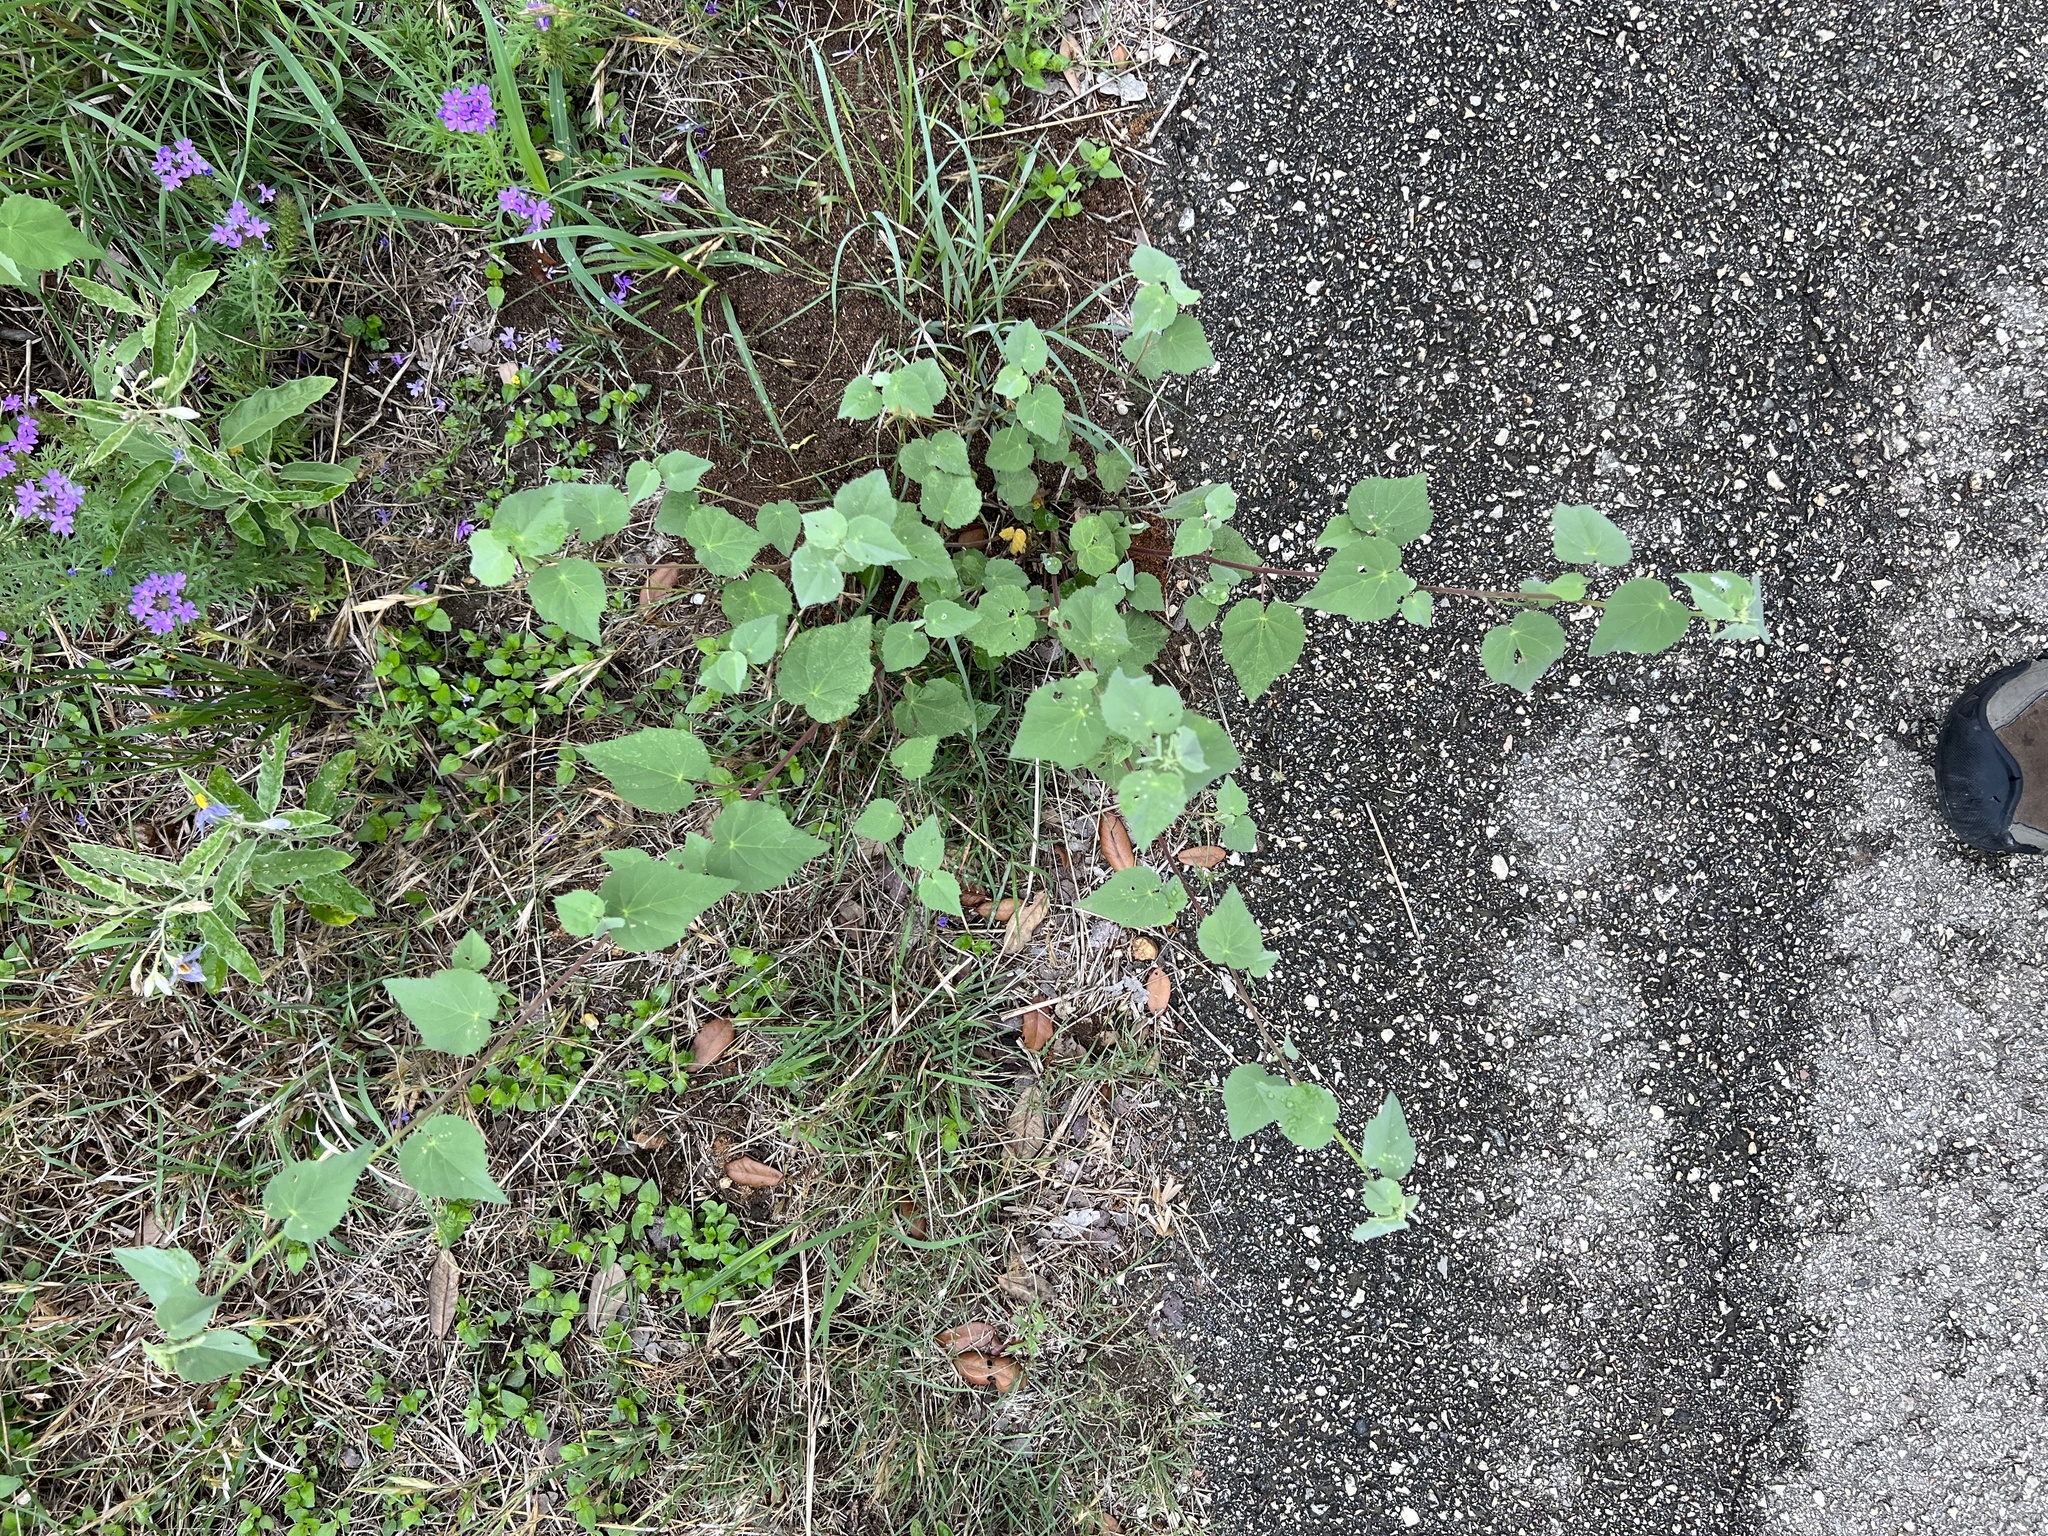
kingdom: Plantae
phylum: Tracheophyta
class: Magnoliopsida
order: Malvales
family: Malvaceae
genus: Abutilon
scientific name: Abutilon fruticosum
